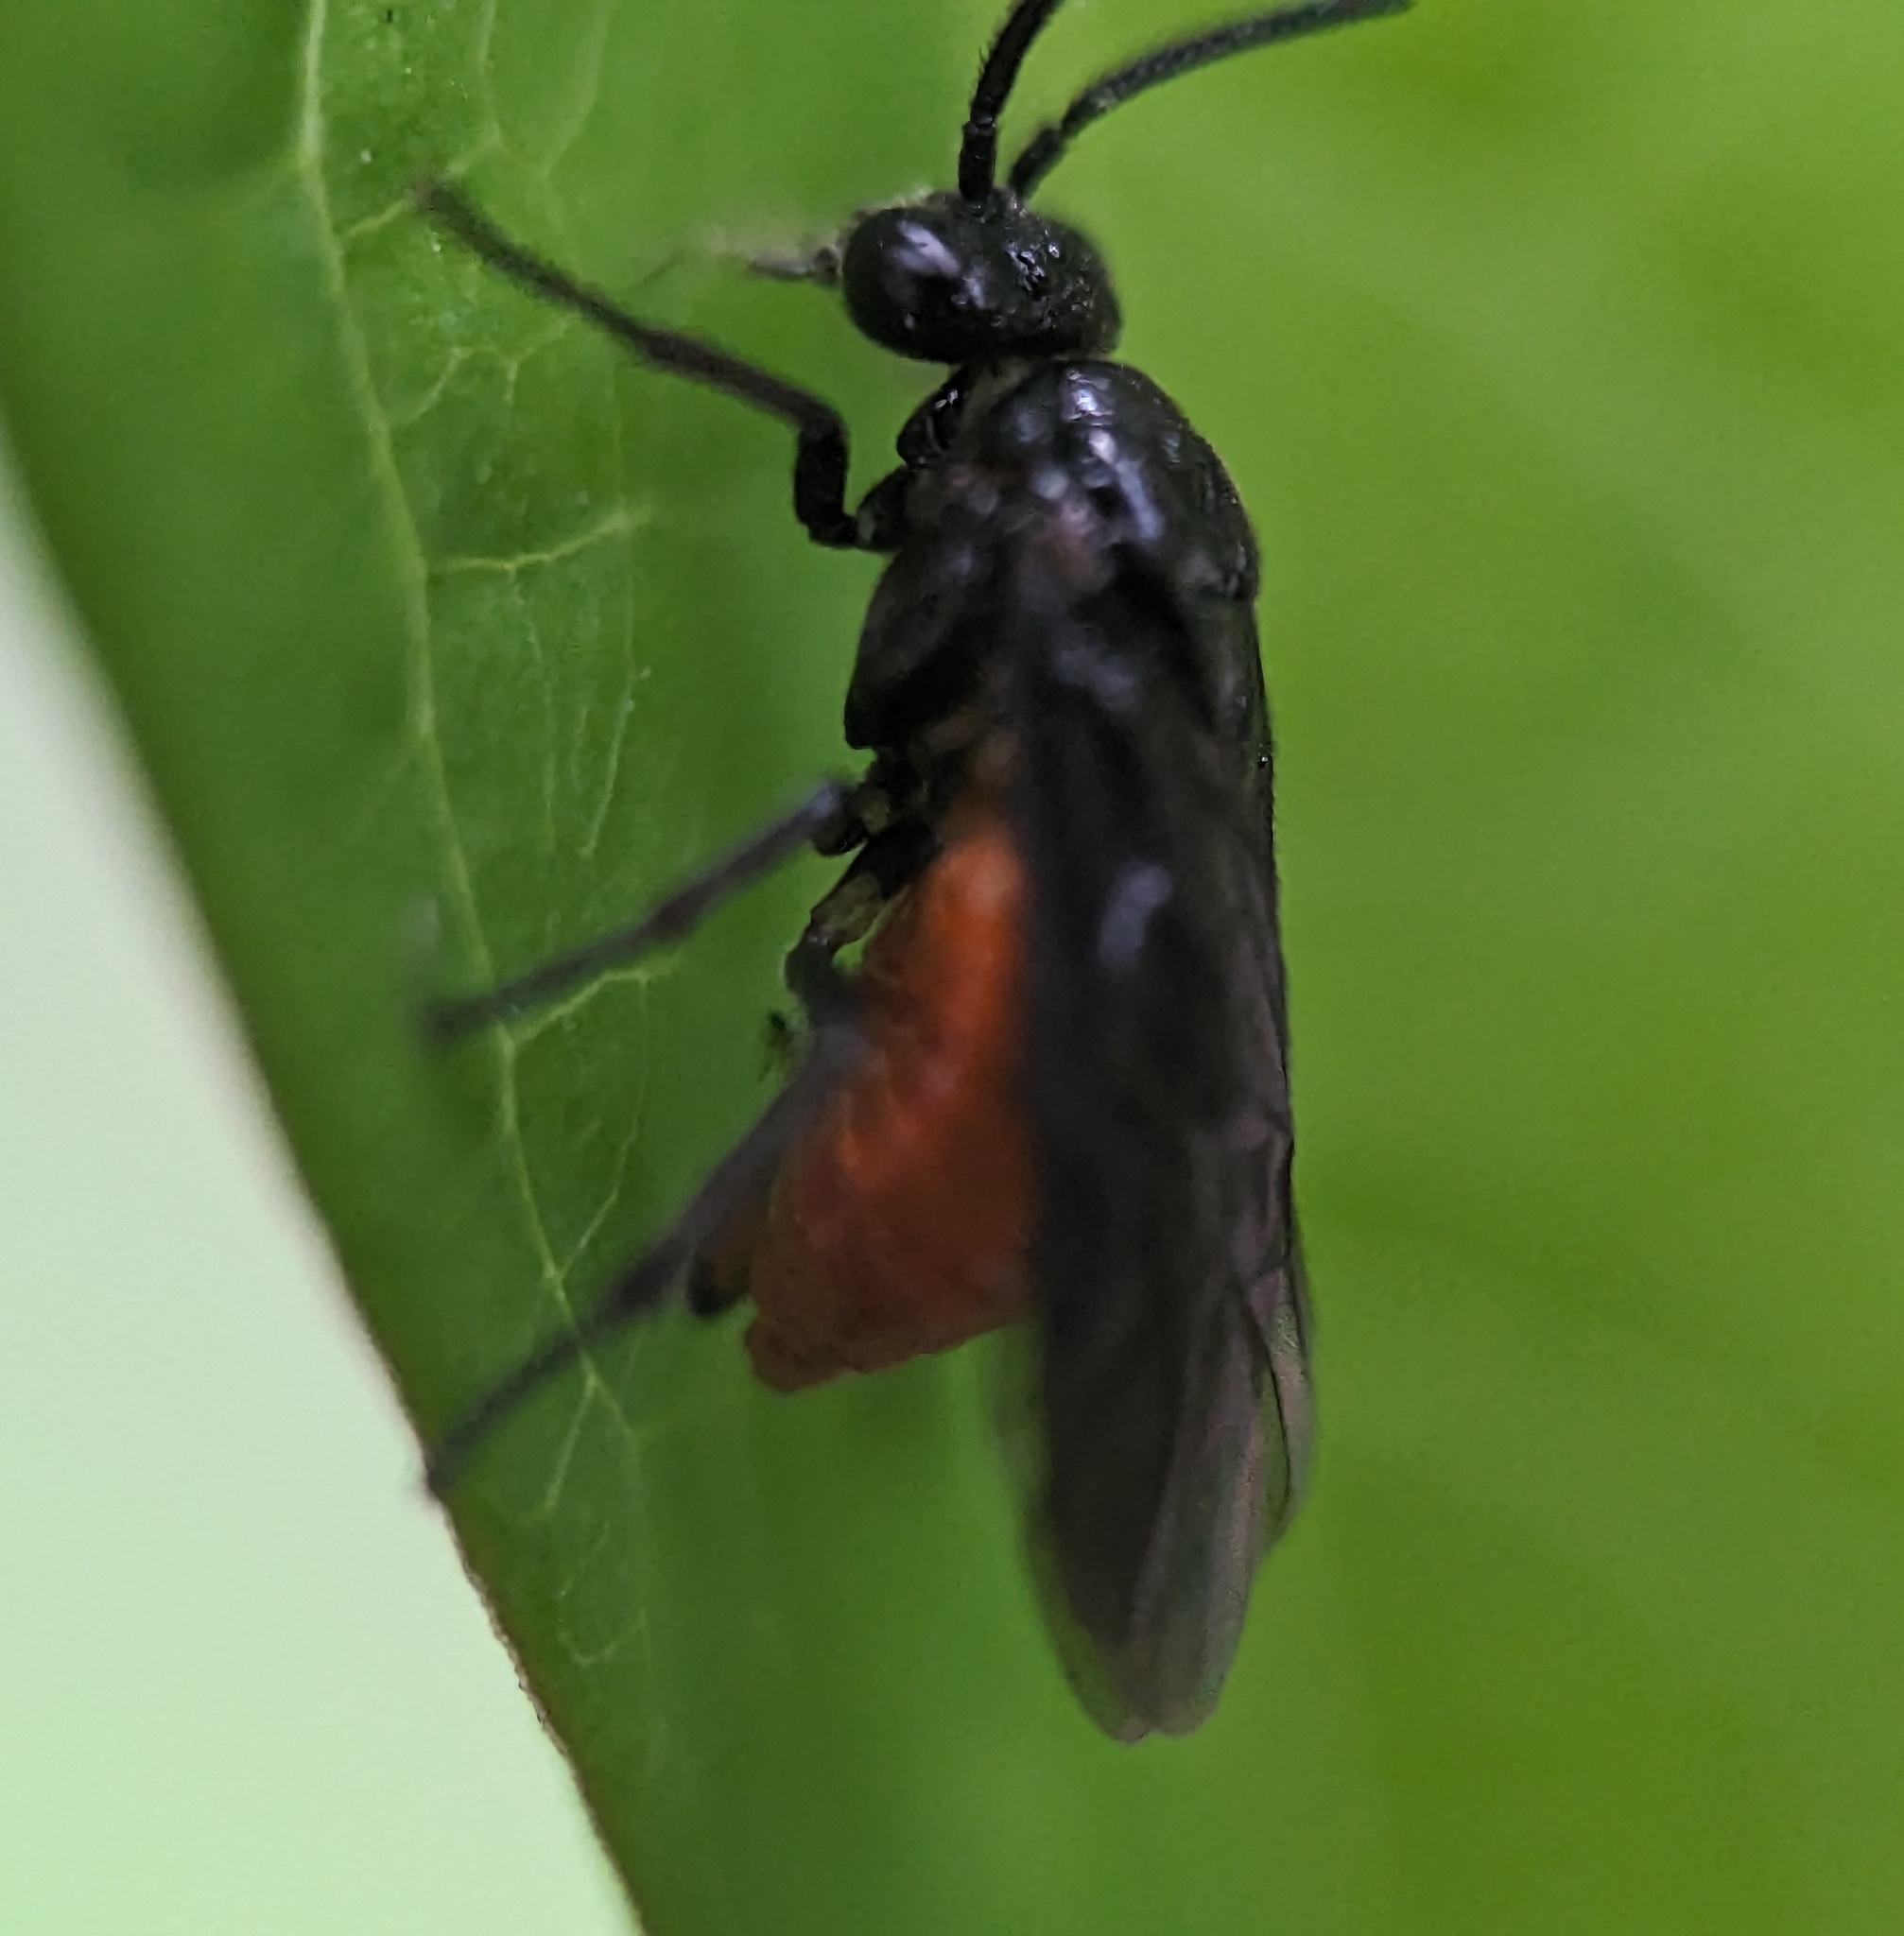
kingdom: Animalia
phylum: Arthropoda
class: Insecta
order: Hymenoptera
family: Argidae
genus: Sphacophilus
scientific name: Sphacophilus cellularis
